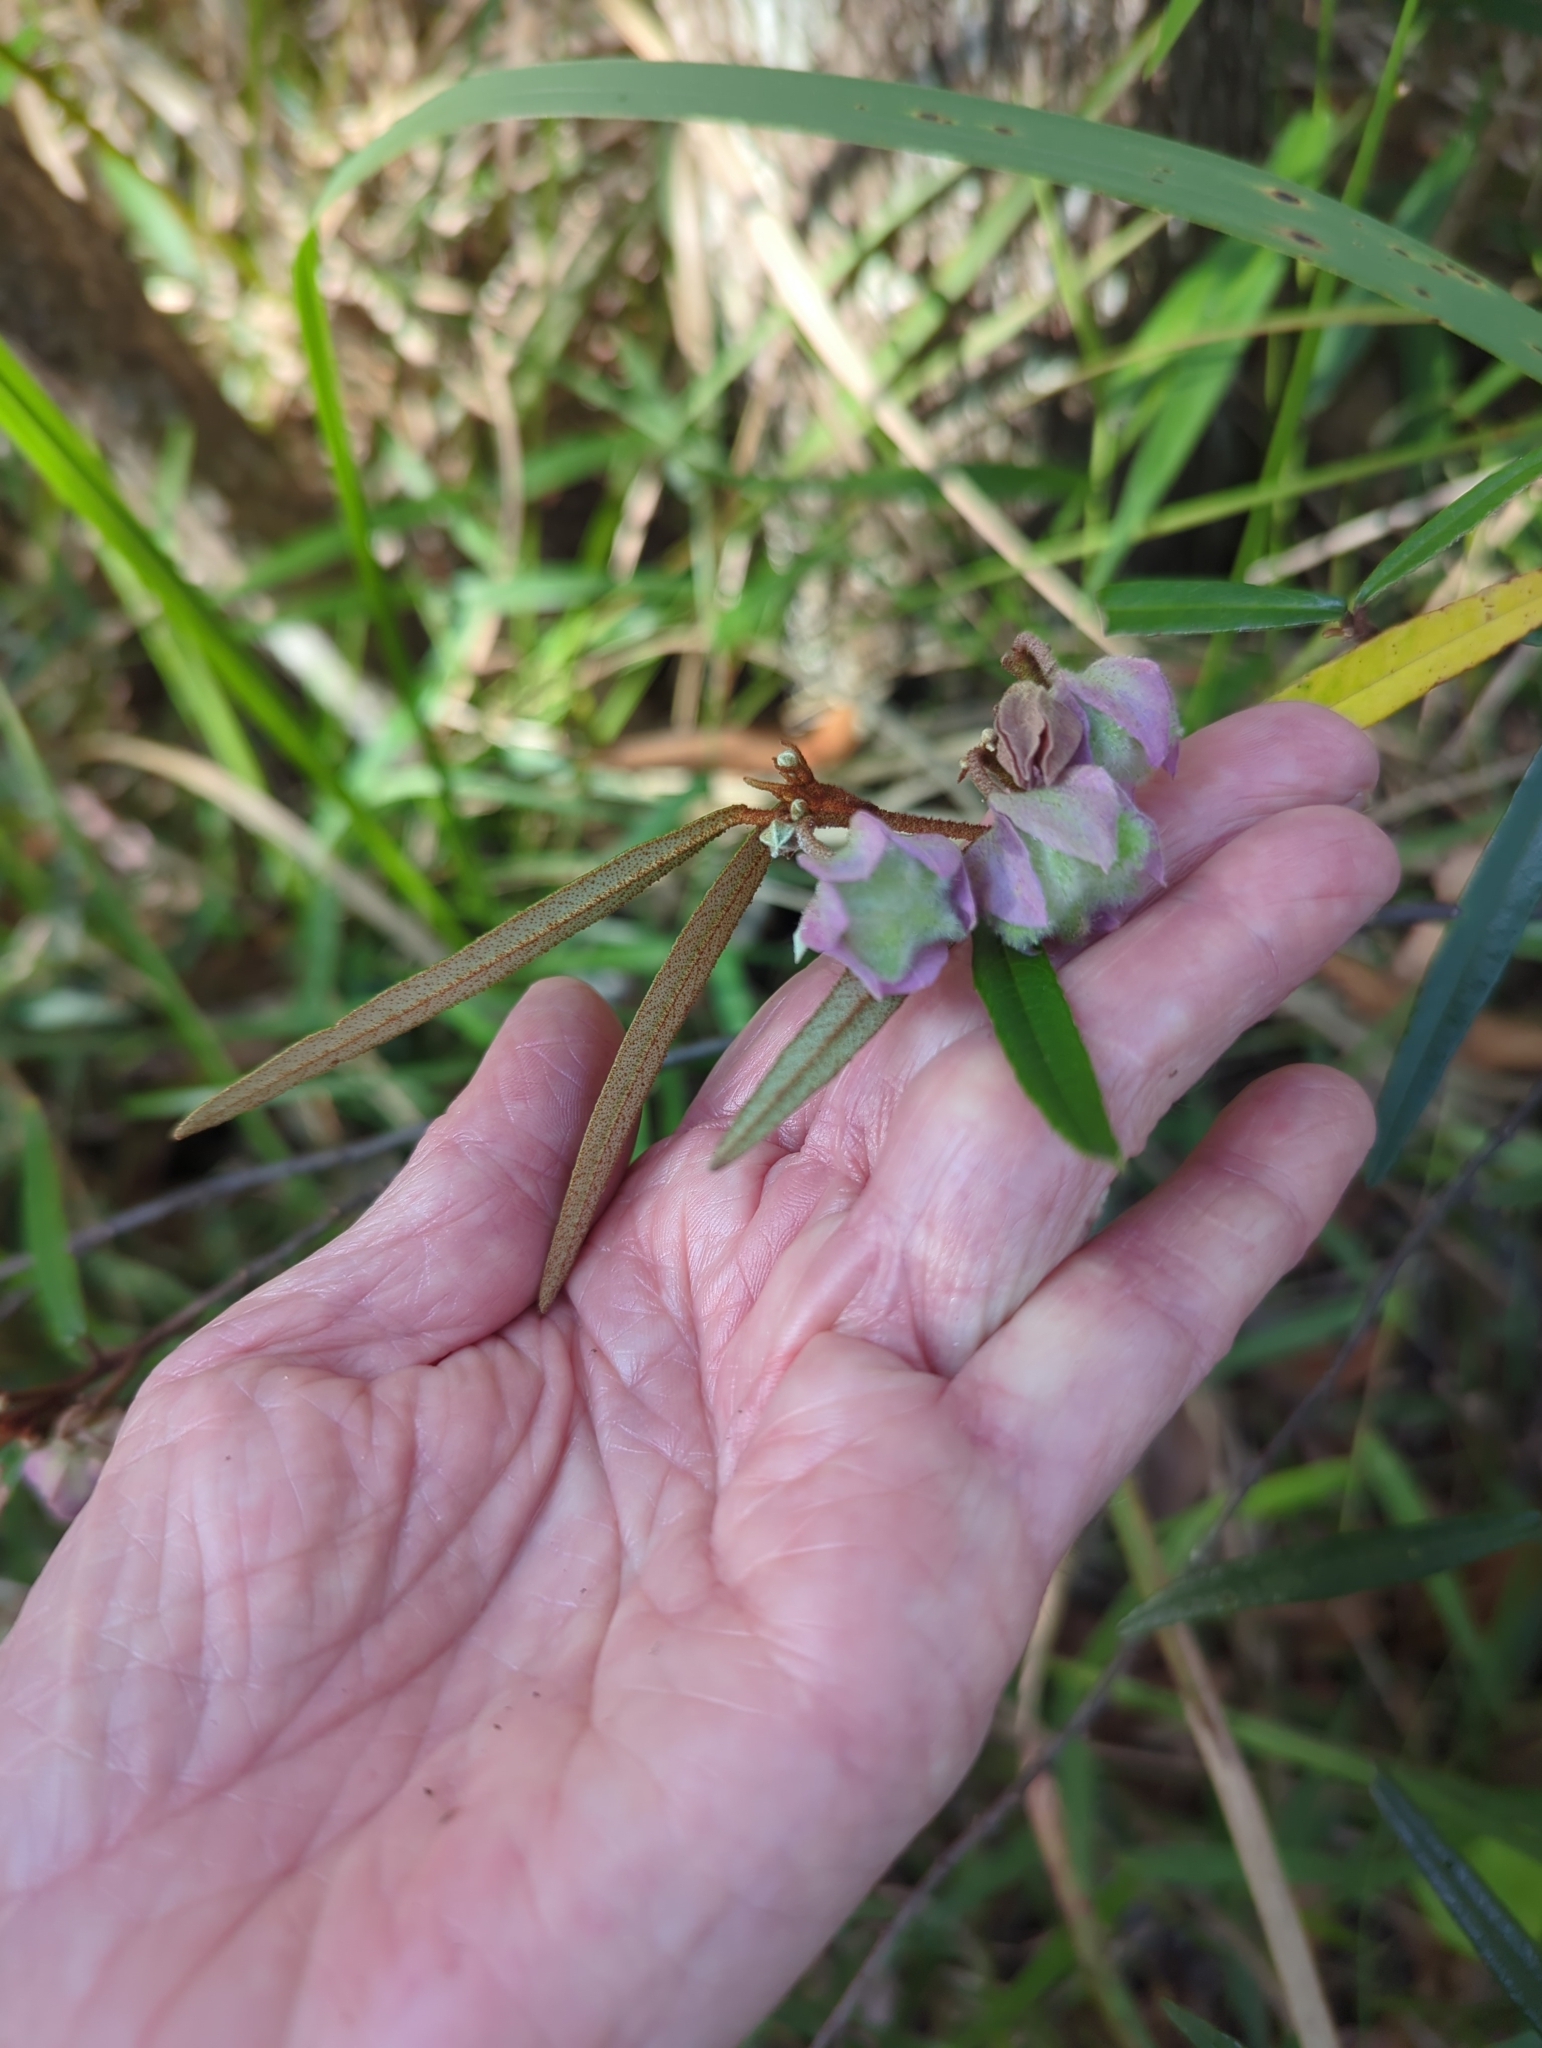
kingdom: Plantae
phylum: Tracheophyta
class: Magnoliopsida
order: Malvales
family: Malvaceae
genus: Seringia
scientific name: Seringia hillii
